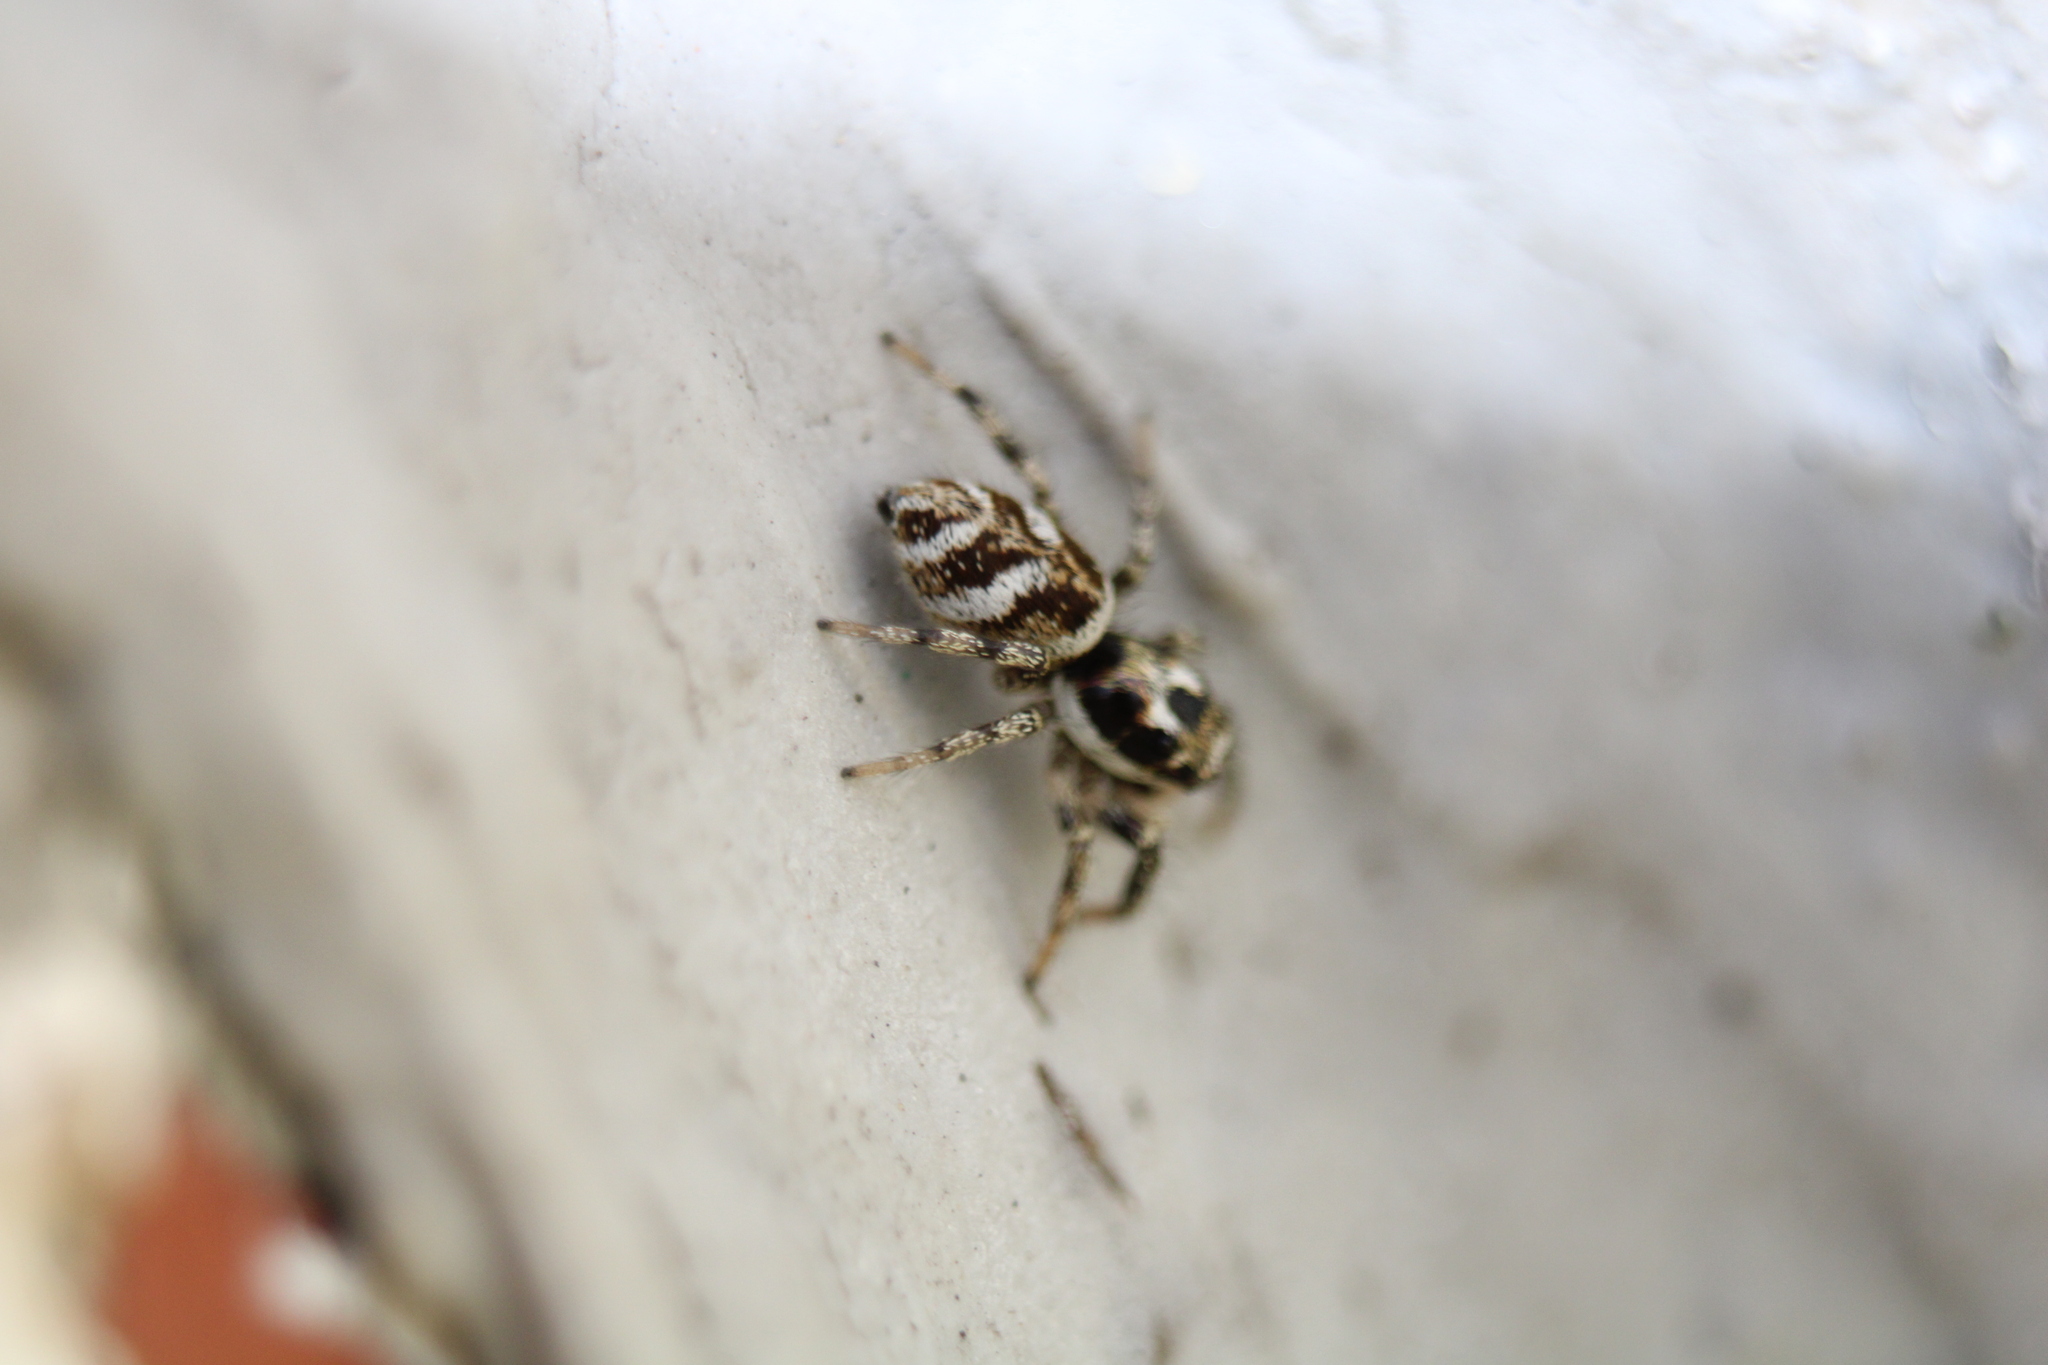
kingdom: Animalia
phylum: Arthropoda
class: Arachnida
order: Araneae
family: Salticidae
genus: Salticus
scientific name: Salticus scenicus
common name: Zebra jumper
